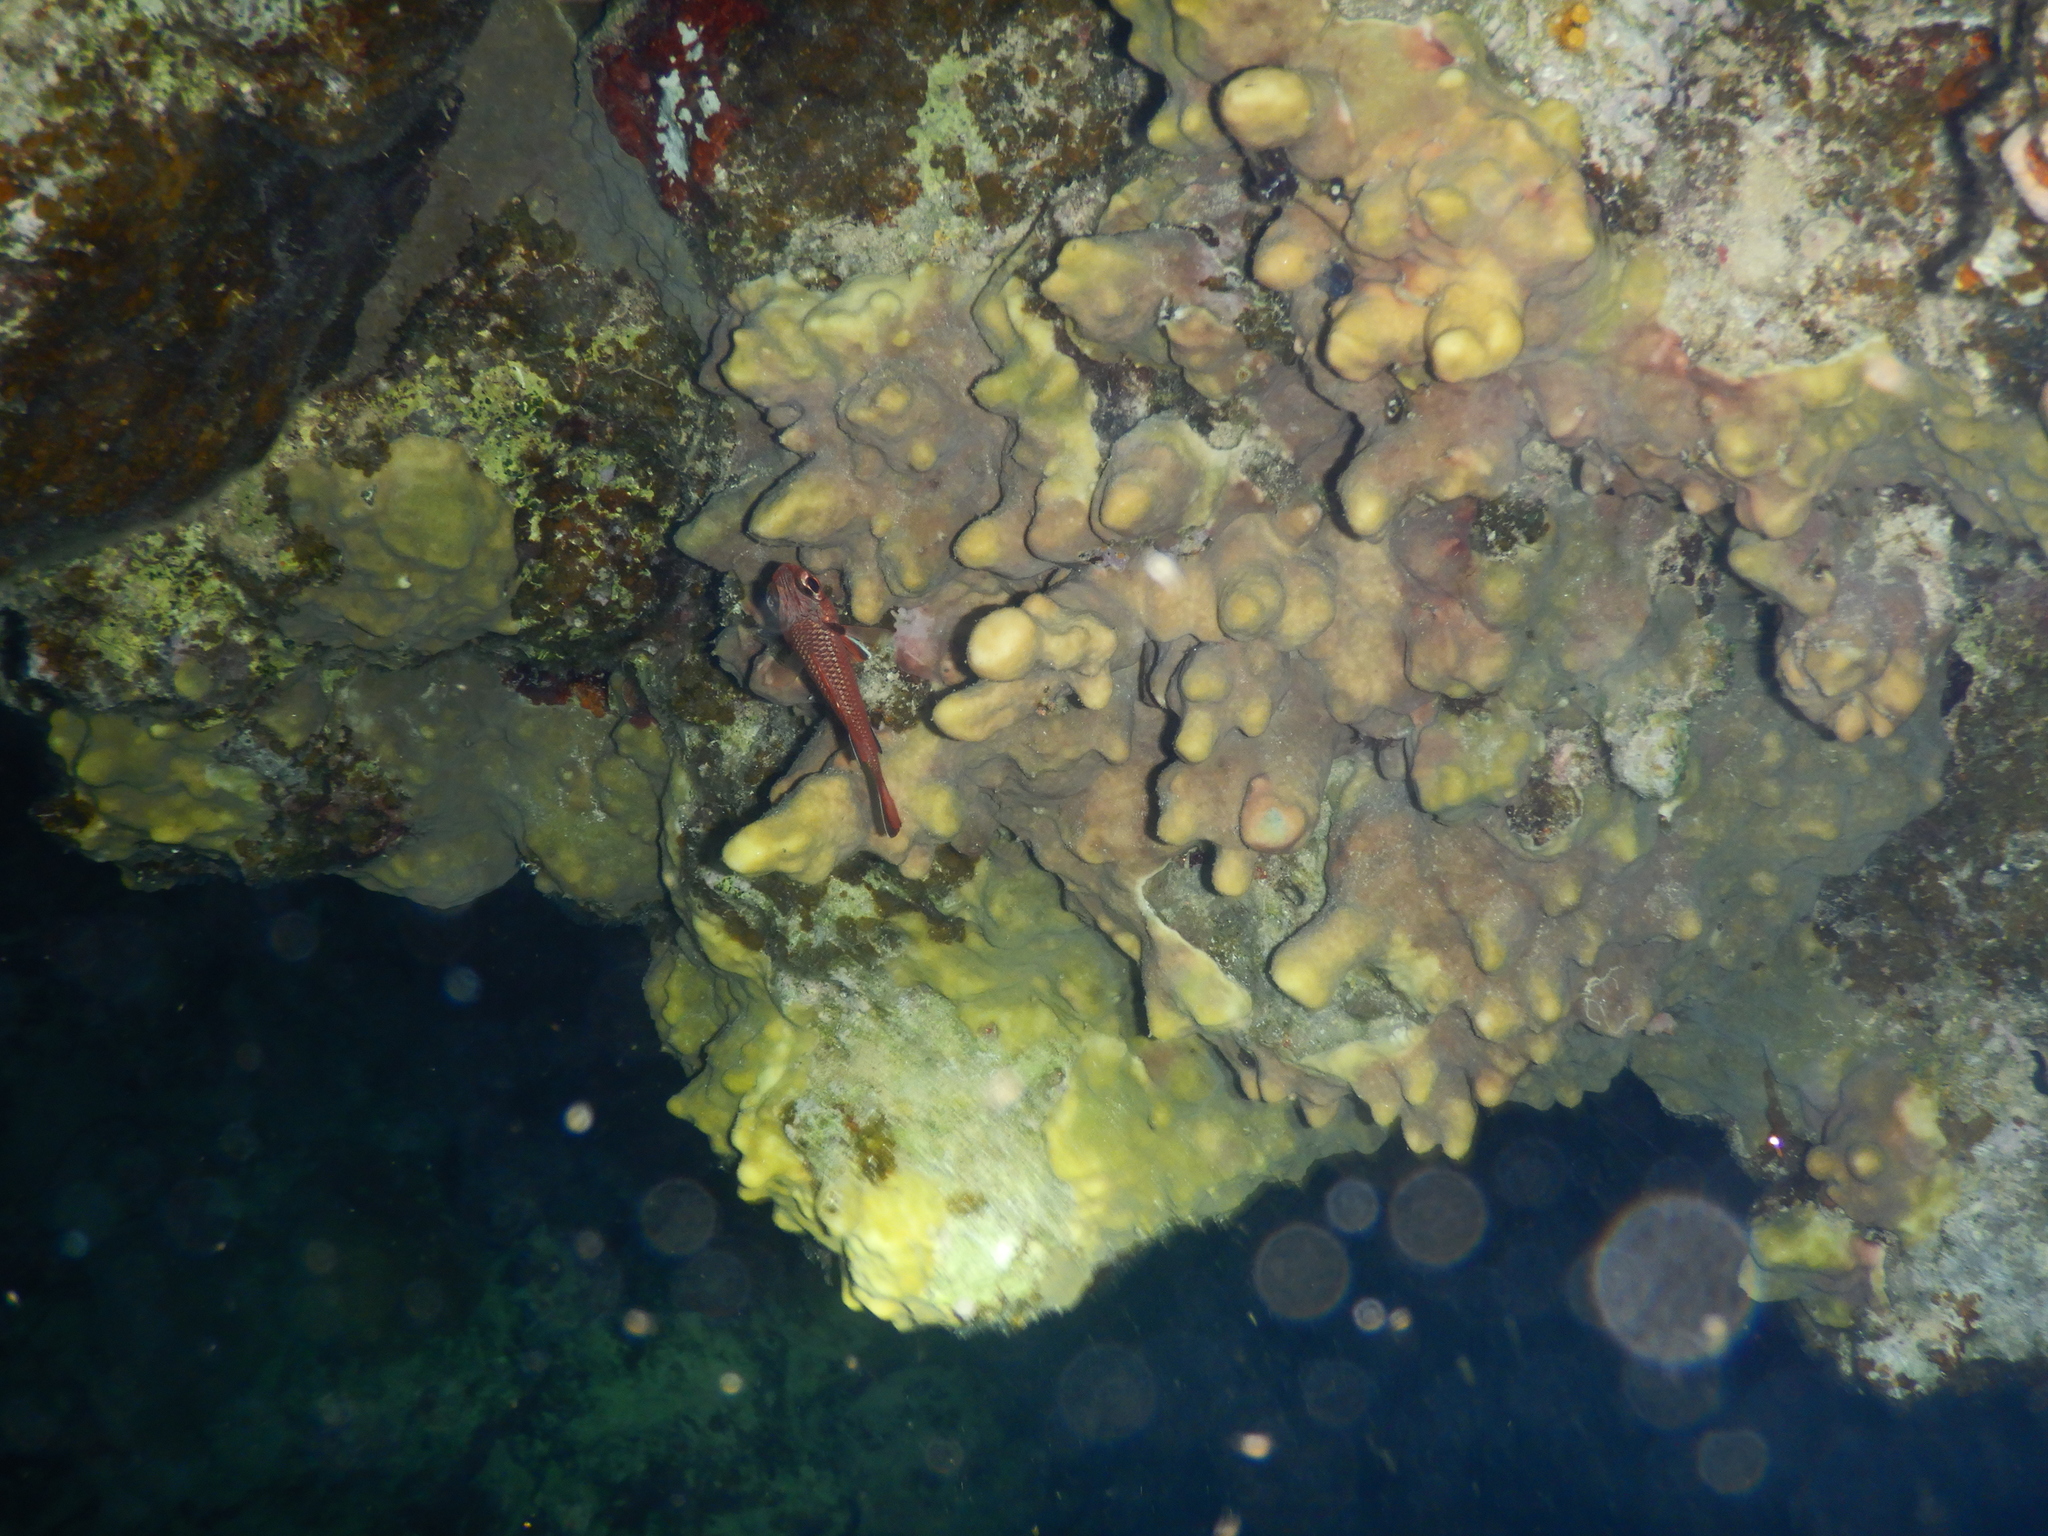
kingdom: Animalia
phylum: Chordata
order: Beryciformes
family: Holocentridae
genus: Myripristis
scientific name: Myripristis murdjan
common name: Big-eye soldierfish
